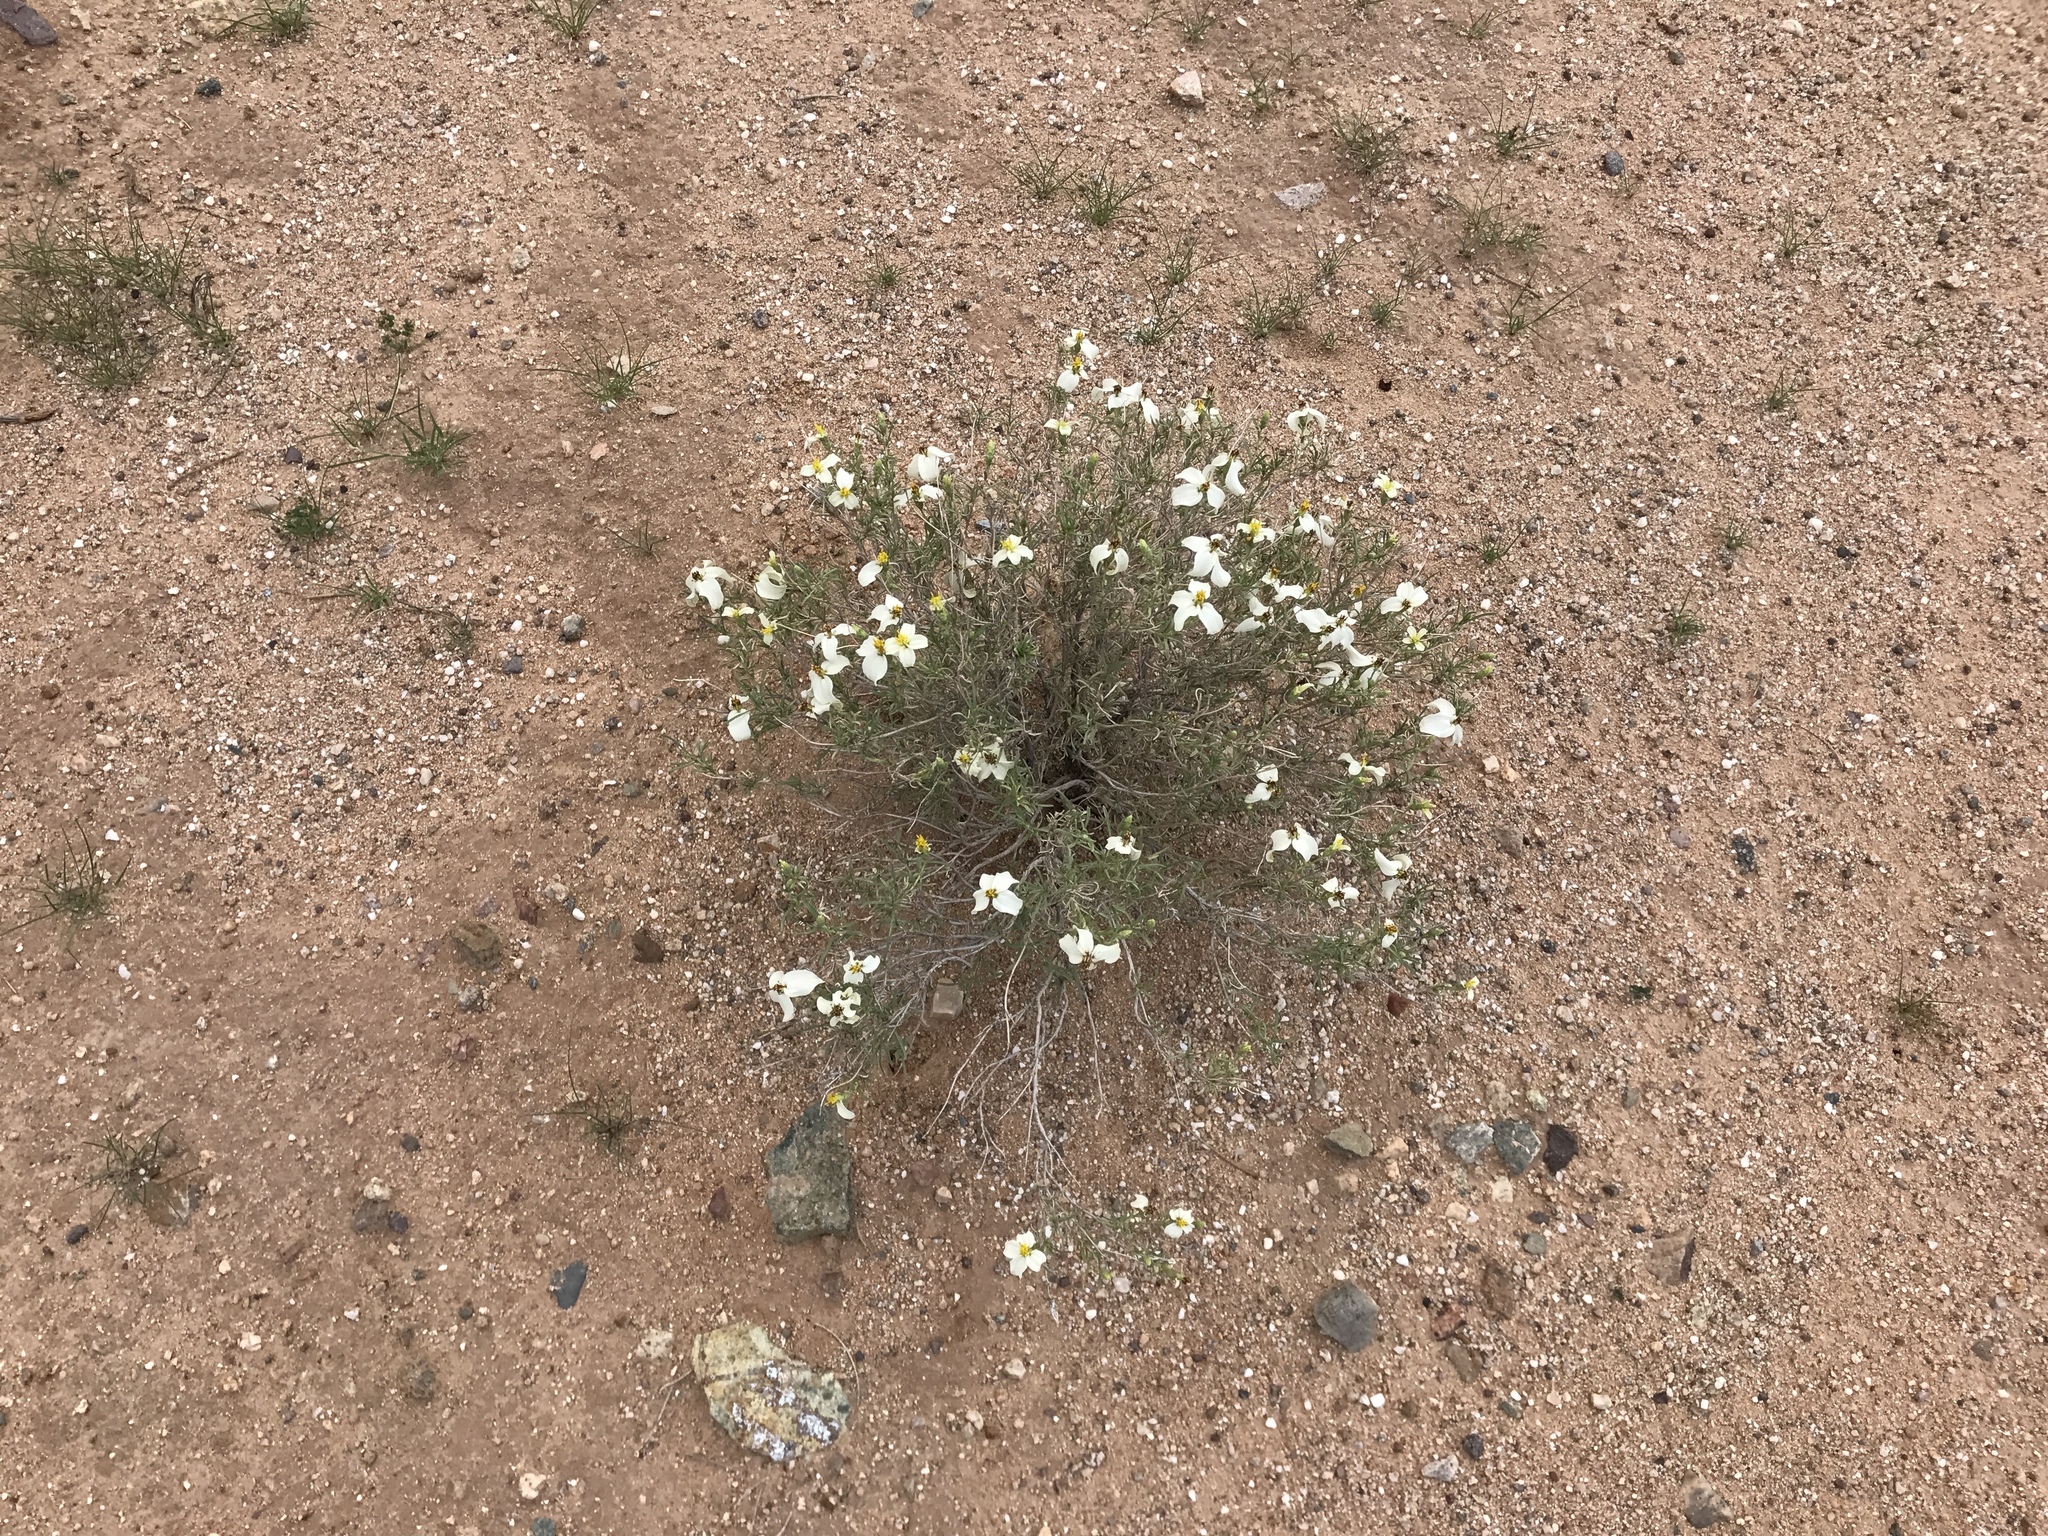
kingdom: Plantae
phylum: Tracheophyta
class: Magnoliopsida
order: Asterales
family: Asteraceae
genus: Zinnia
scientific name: Zinnia acerosa
